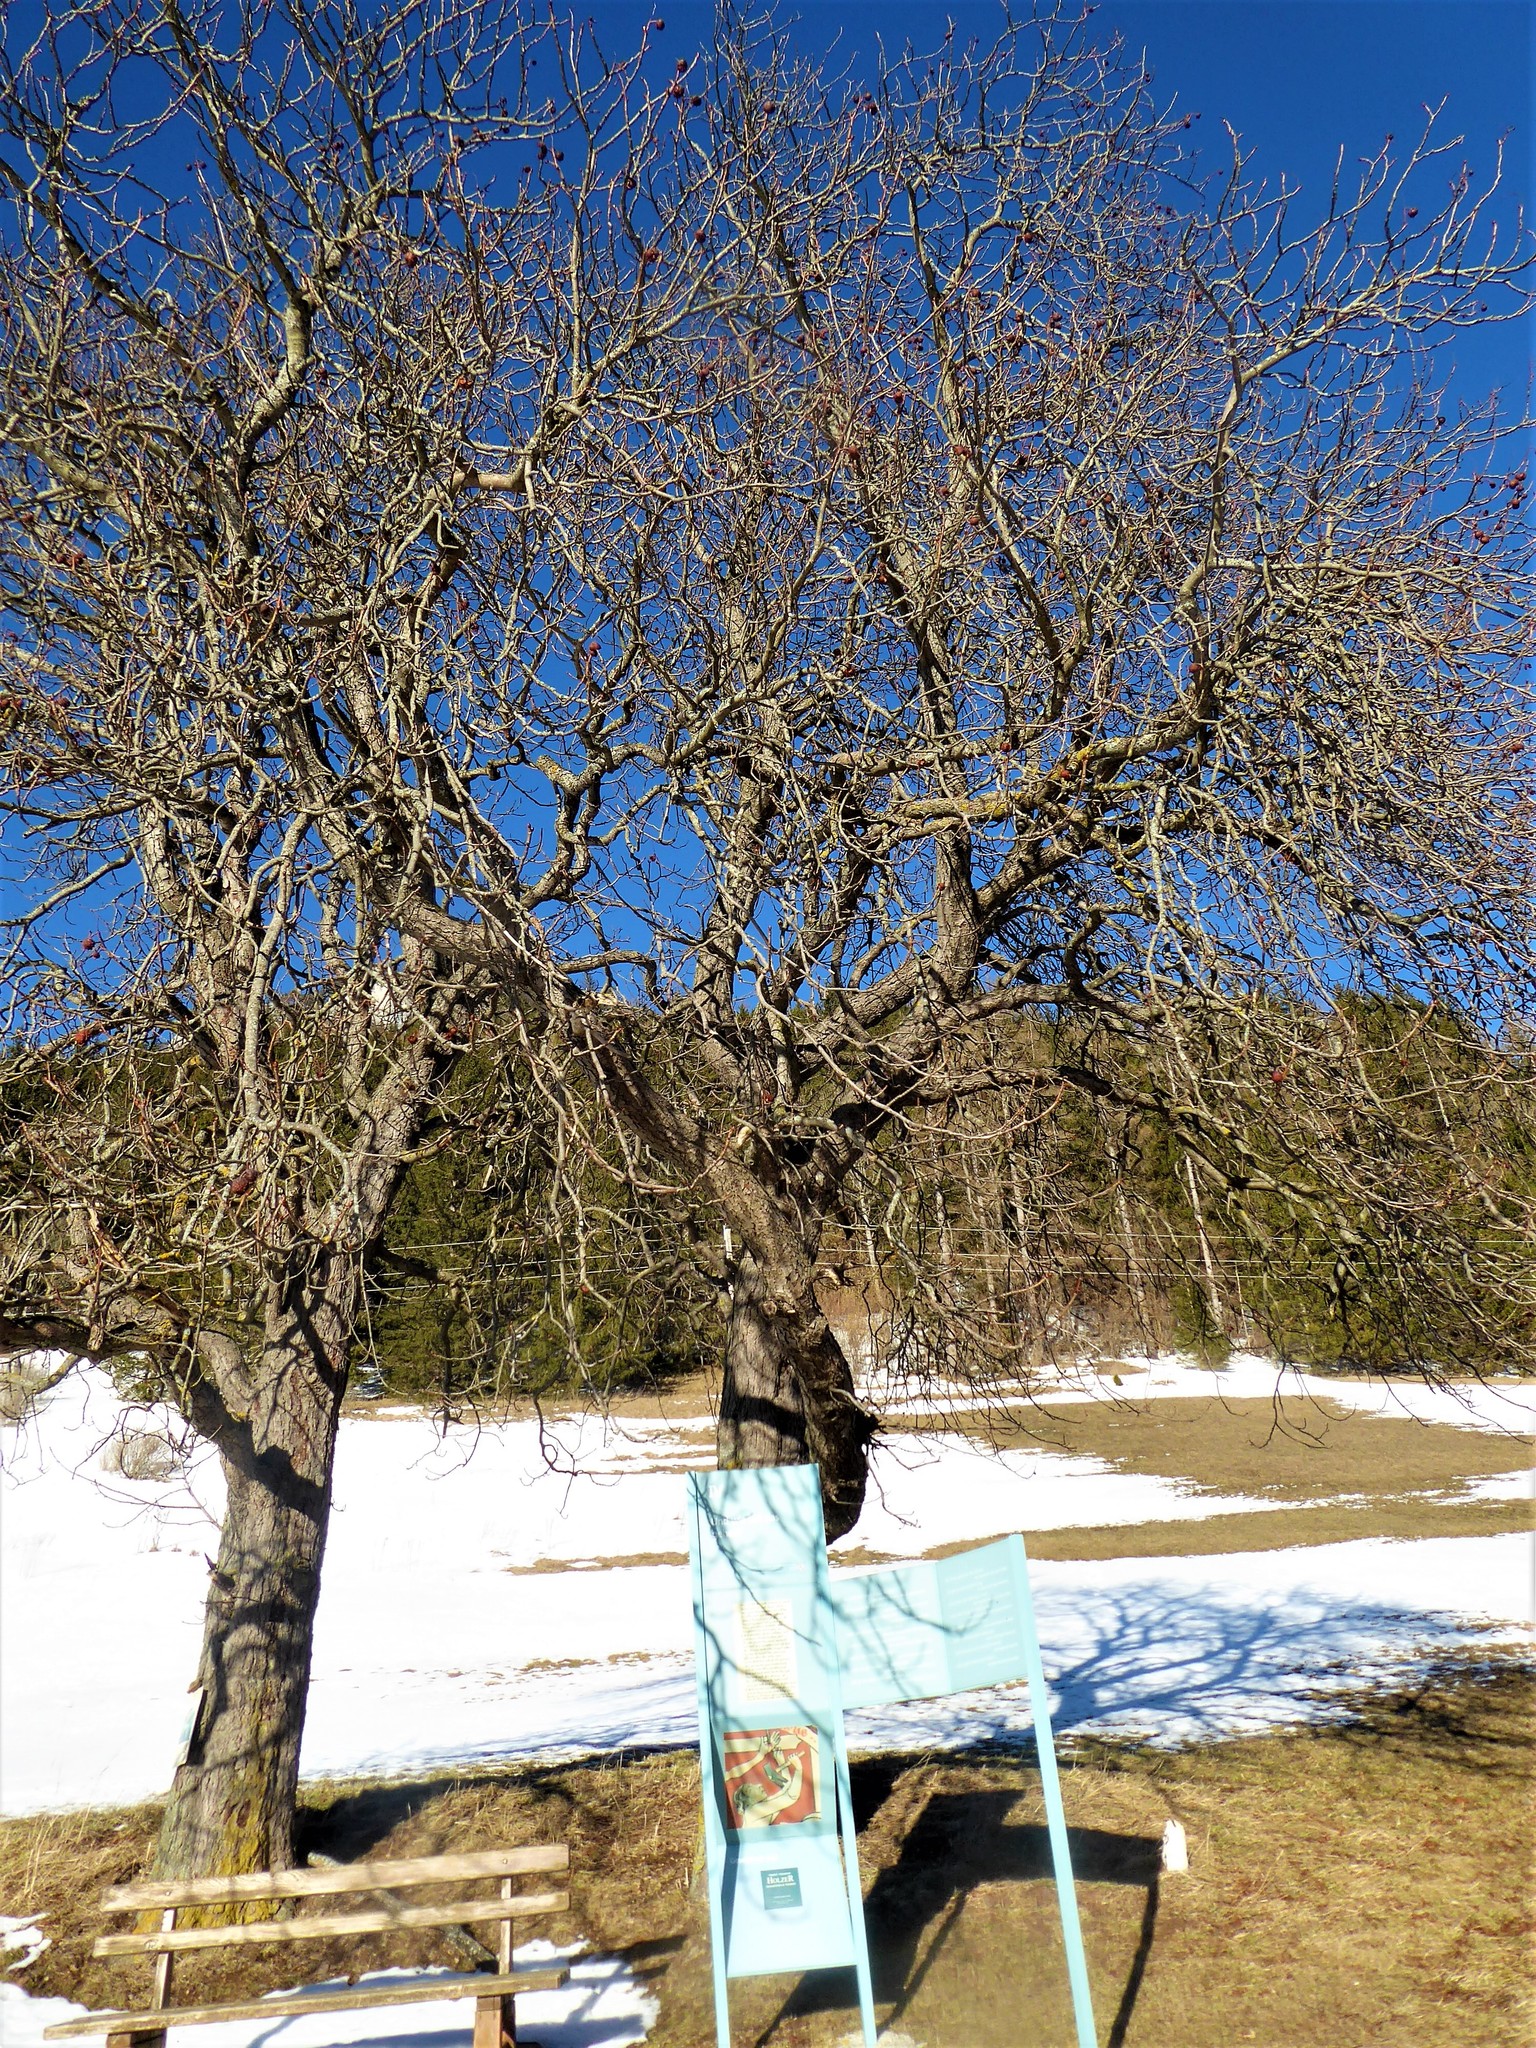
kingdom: Plantae
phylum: Tracheophyta
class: Magnoliopsida
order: Sapindales
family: Sapindaceae
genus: Aesculus
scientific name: Aesculus hippocastanum
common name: Horse-chestnut
